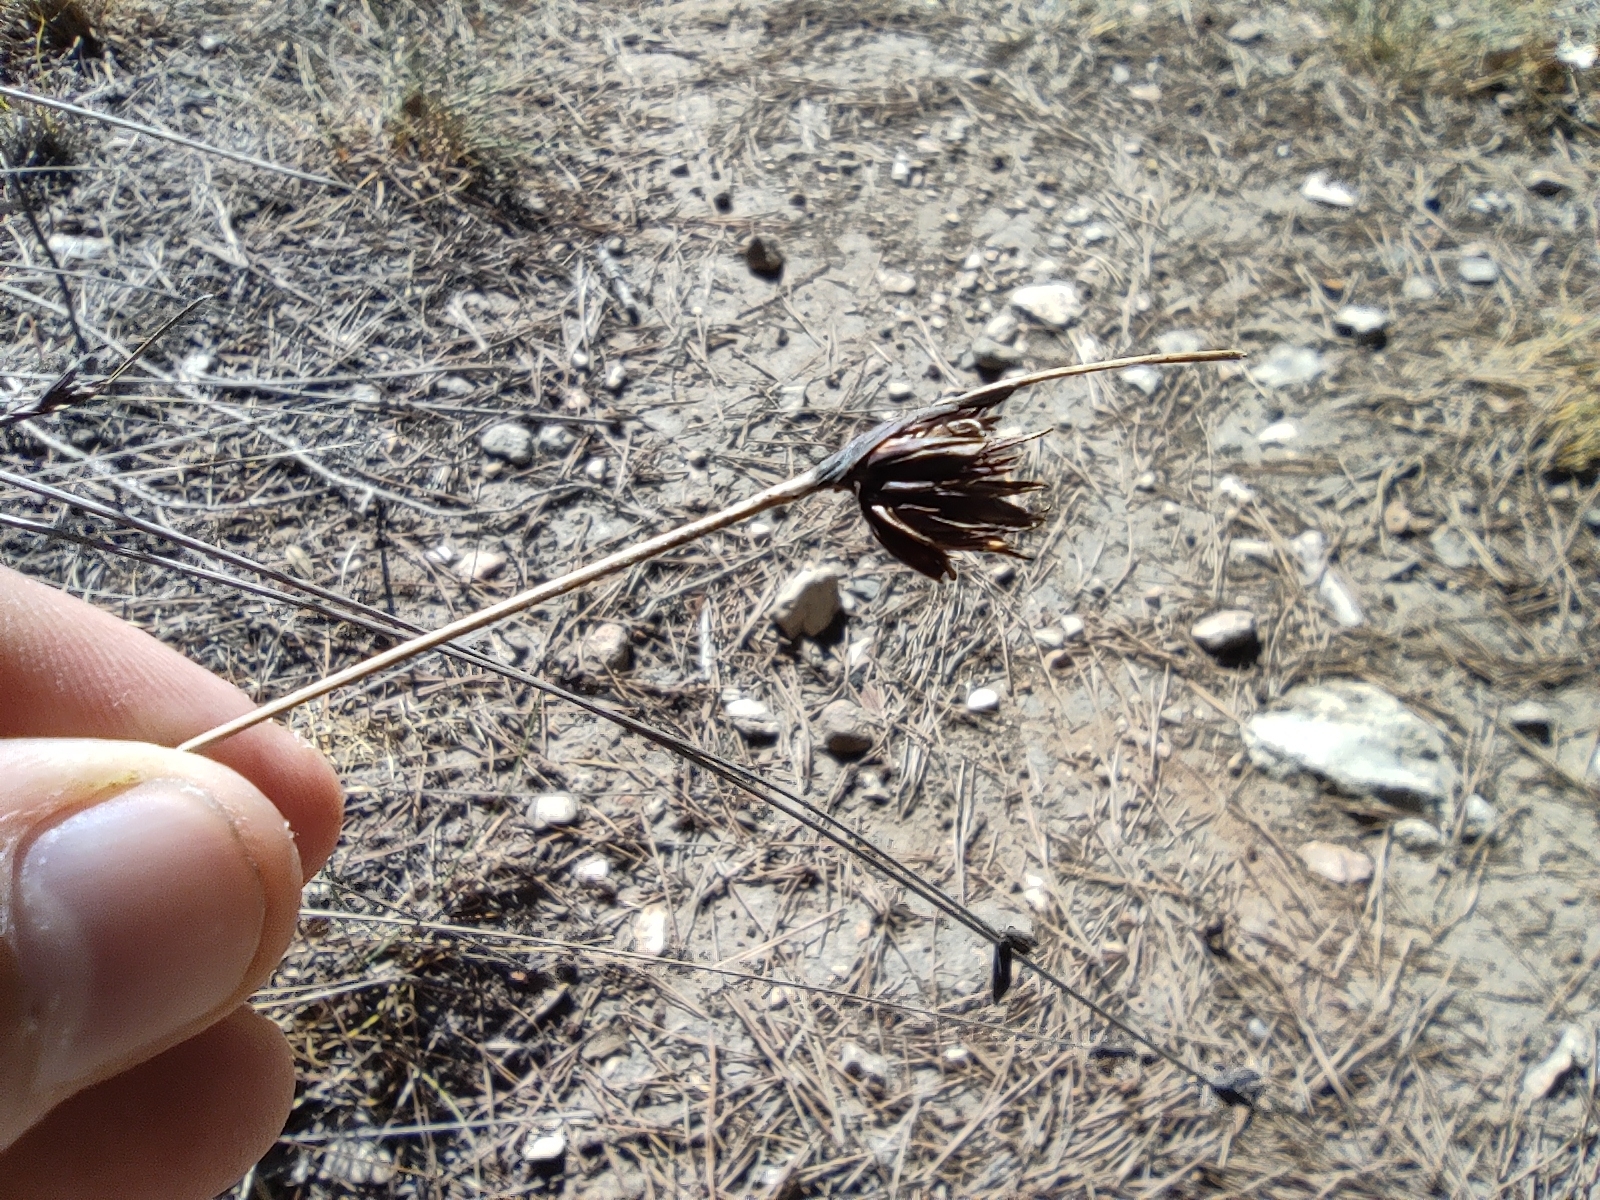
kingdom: Plantae
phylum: Tracheophyta
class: Liliopsida
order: Poales
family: Cyperaceae
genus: Schoenus
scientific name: Schoenus nigricans
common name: Black bog-rush
